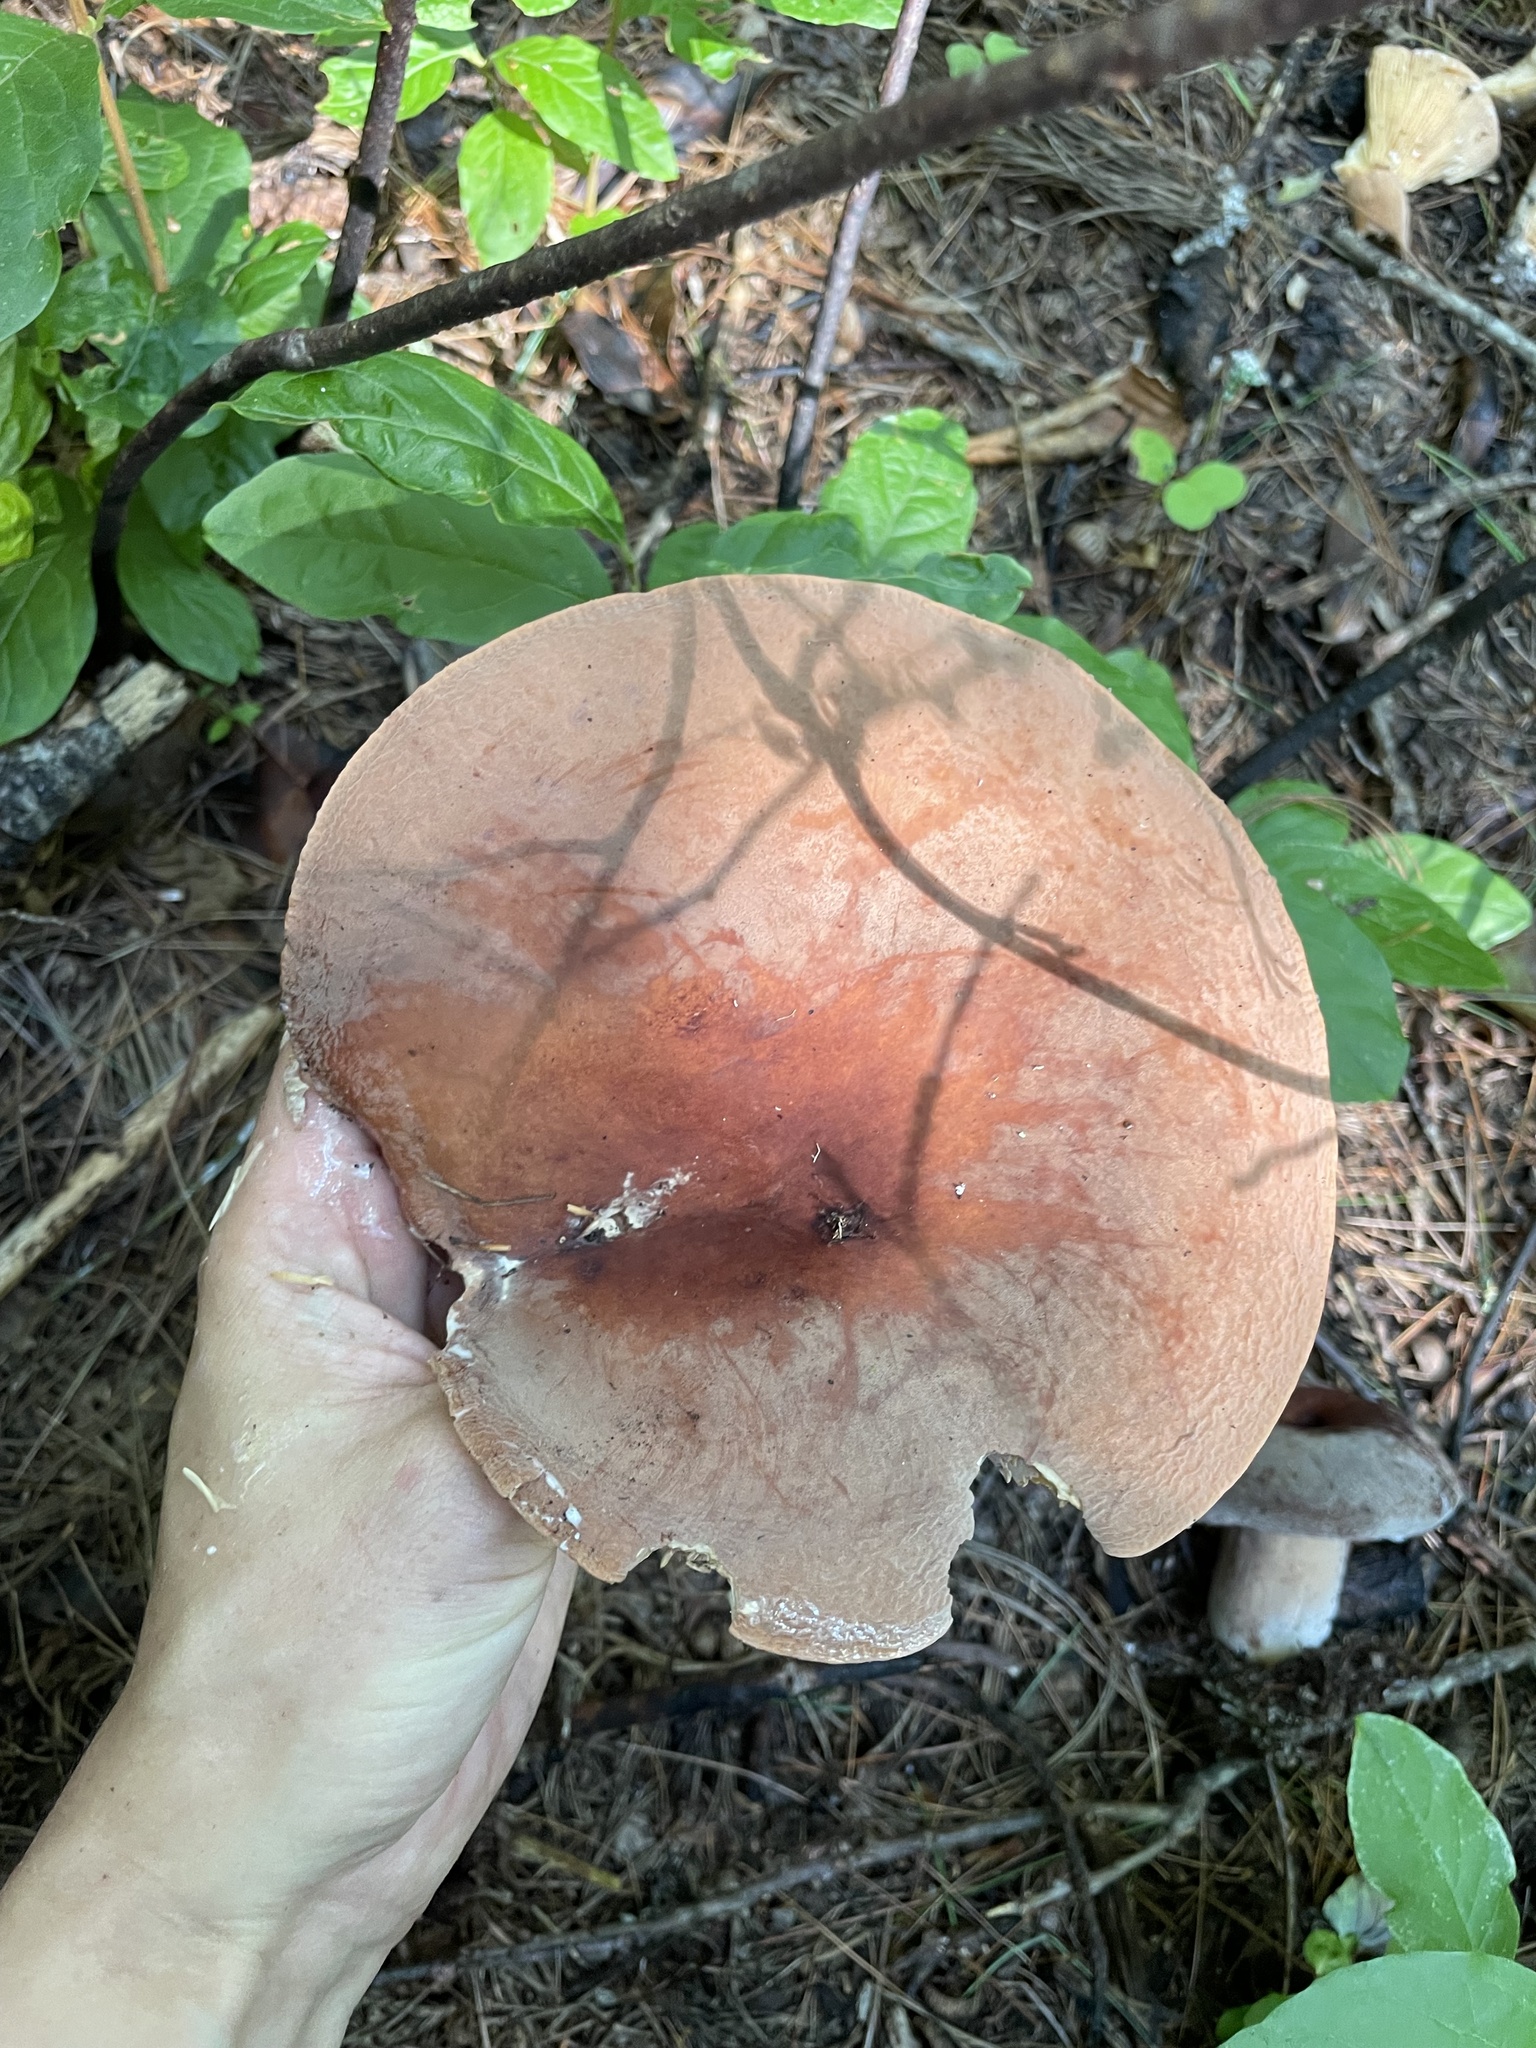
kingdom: Fungi
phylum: Basidiomycota
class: Agaricomycetes
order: Russulales
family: Russulaceae
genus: Lactarius
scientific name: Lactarius corrugis
